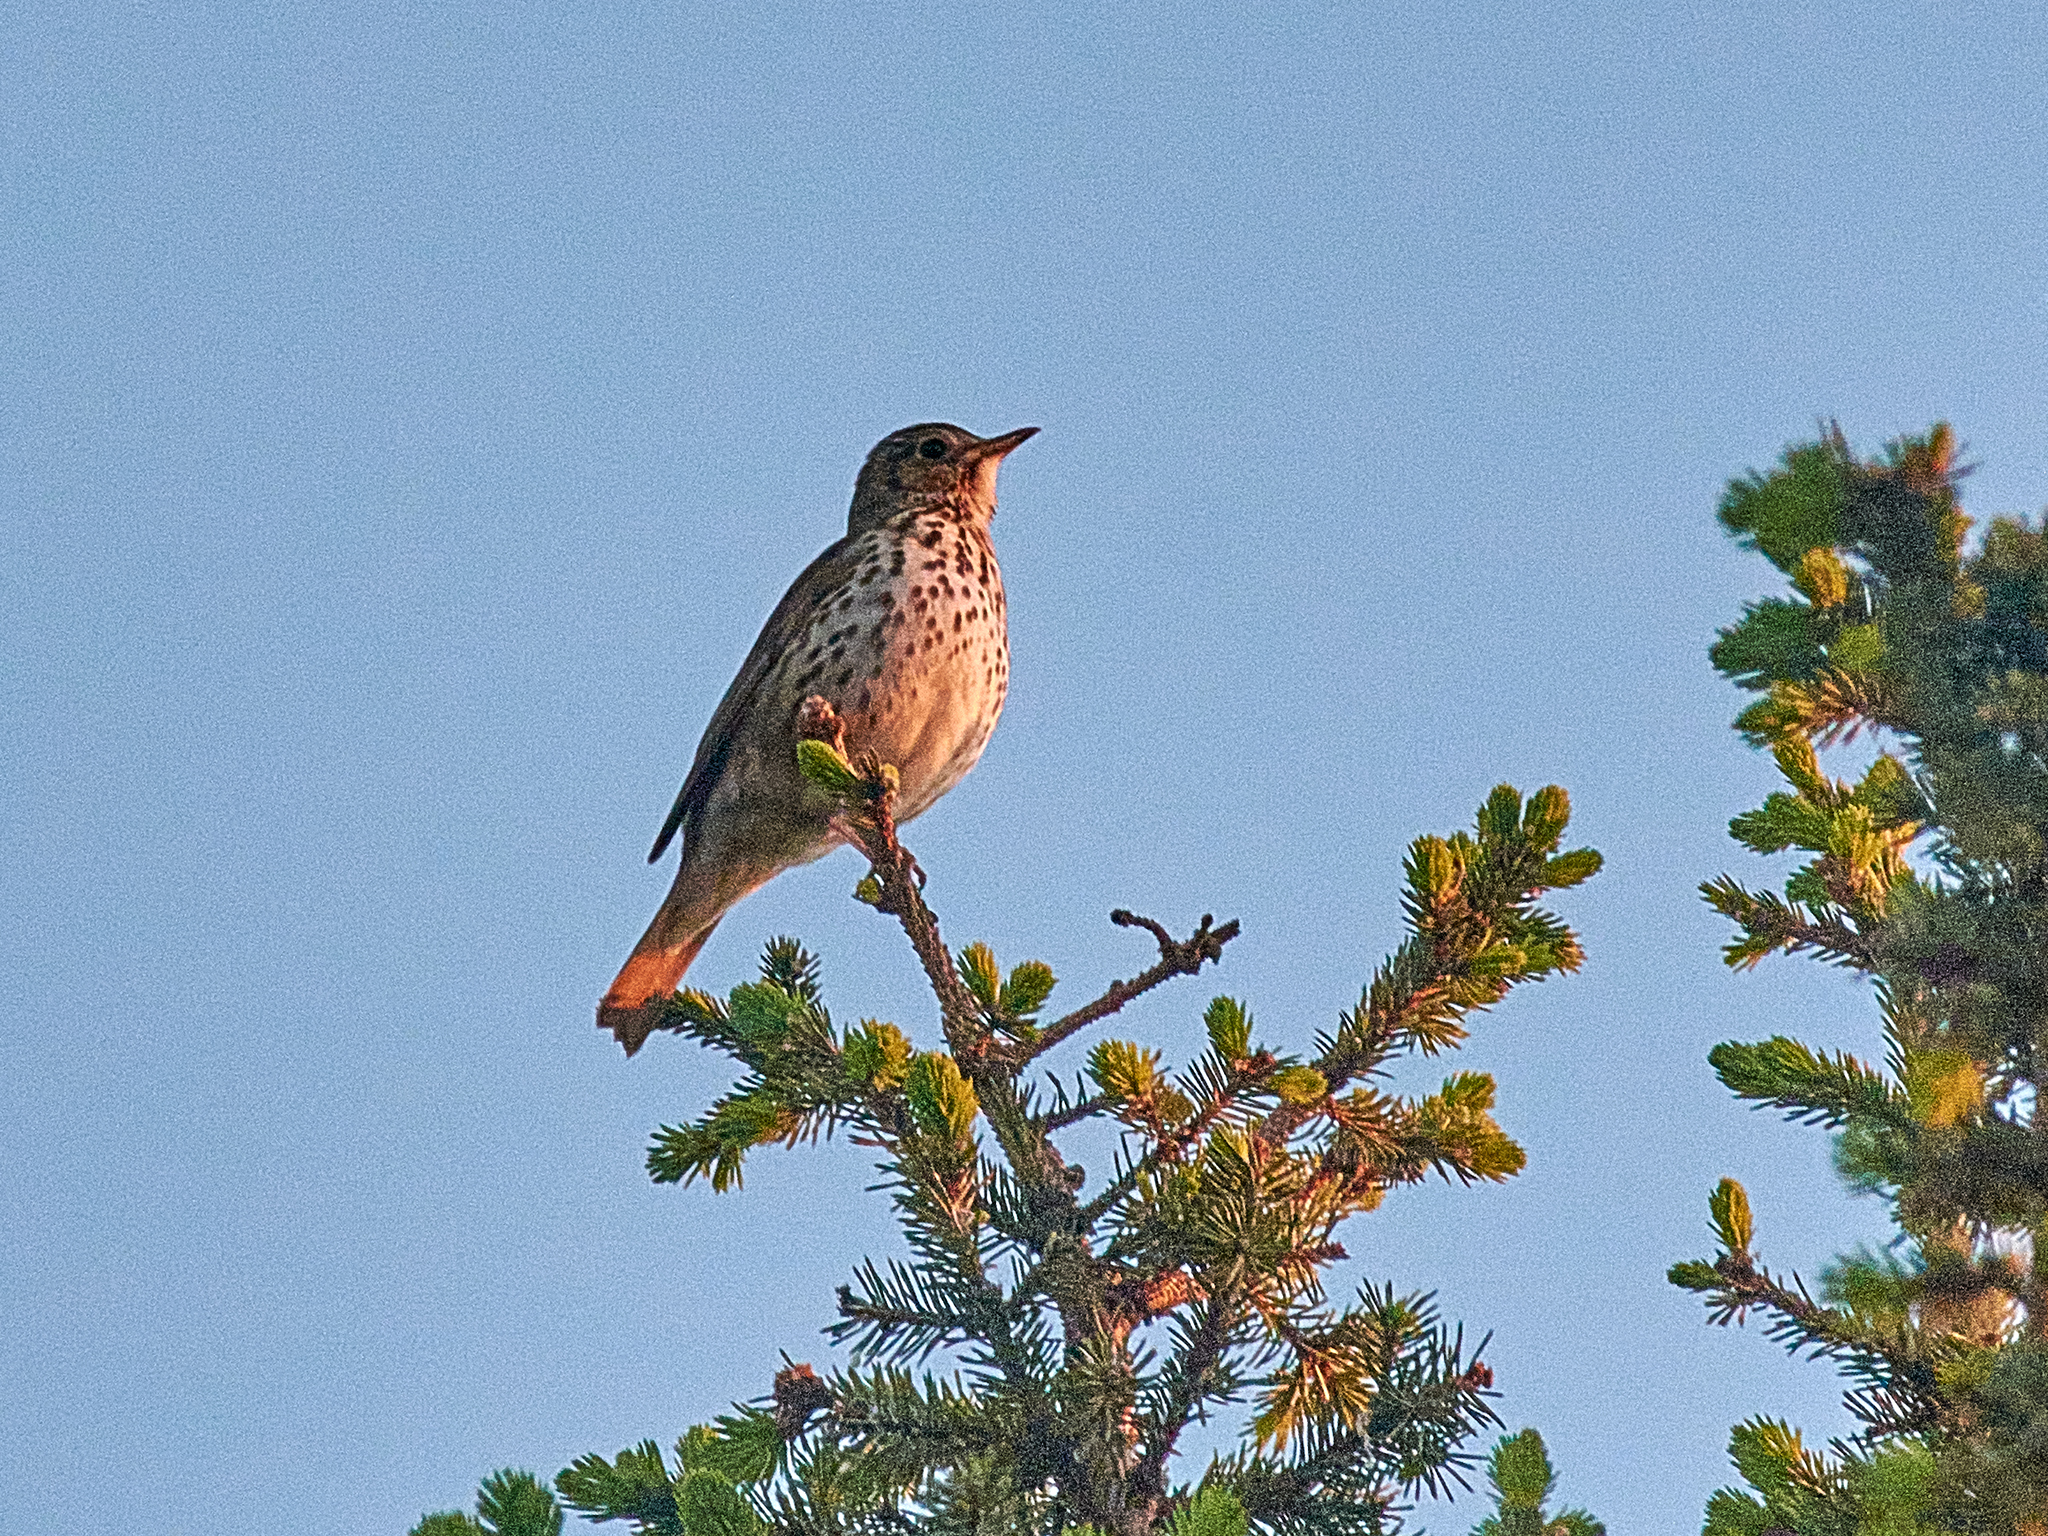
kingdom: Animalia
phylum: Chordata
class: Aves
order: Passeriformes
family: Turdidae
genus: Turdus
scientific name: Turdus philomelos
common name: Song thrush
